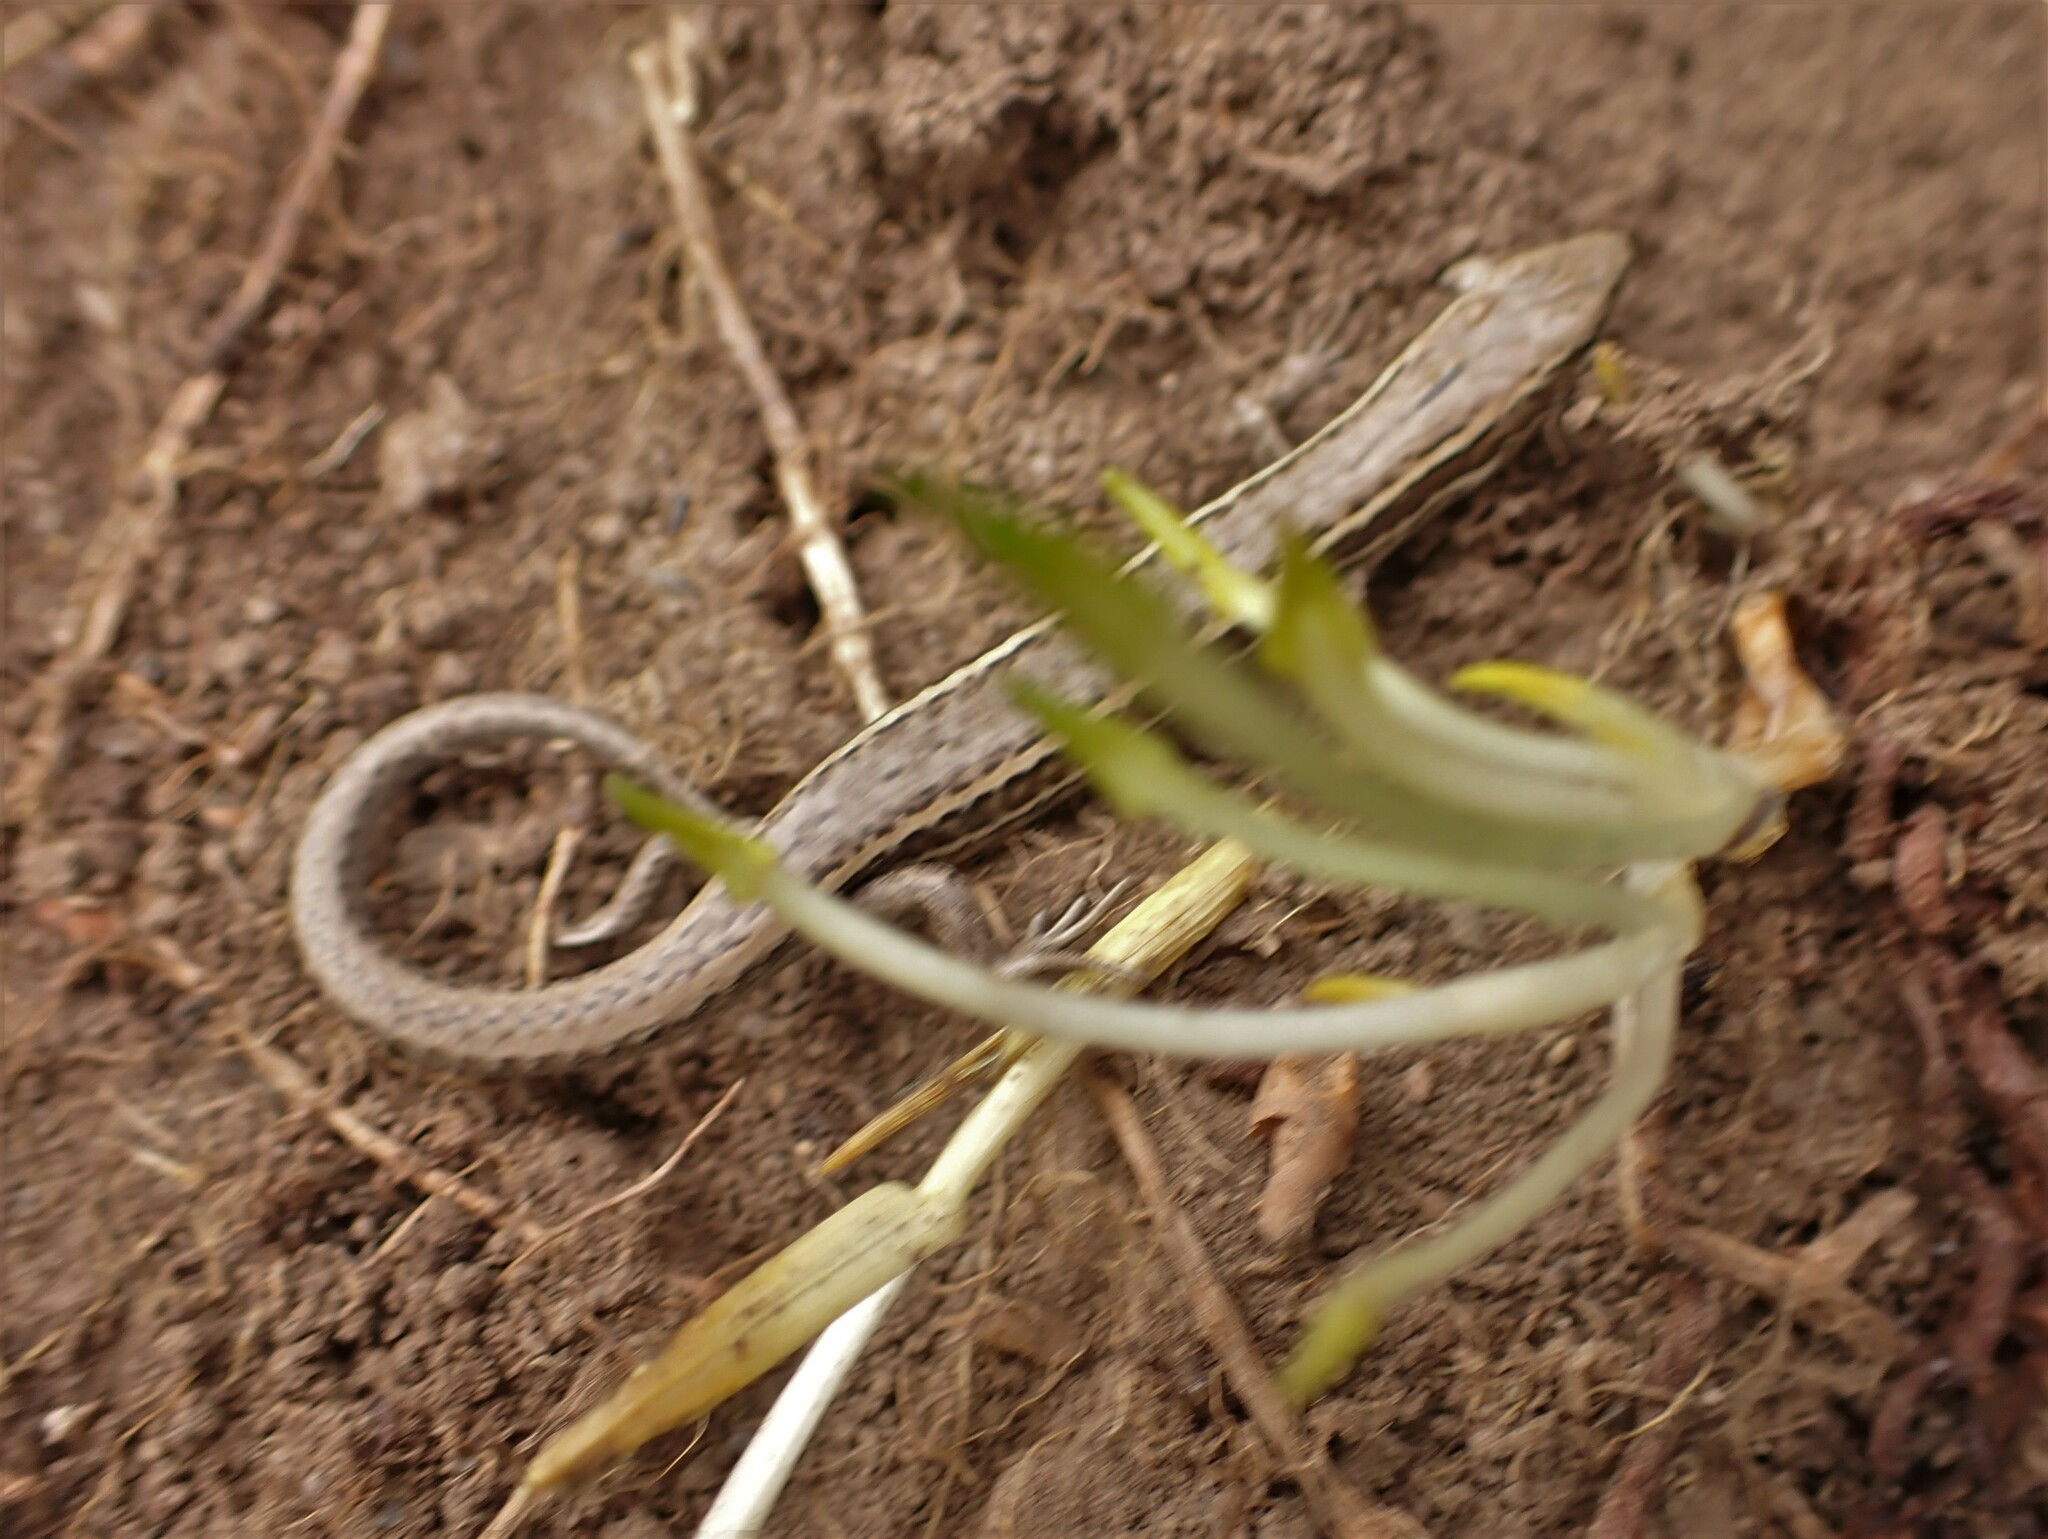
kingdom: Animalia
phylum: Chordata
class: Squamata
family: Scincidae
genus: Oligosoma
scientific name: Oligosoma maccanni
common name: Mccann’s skink
